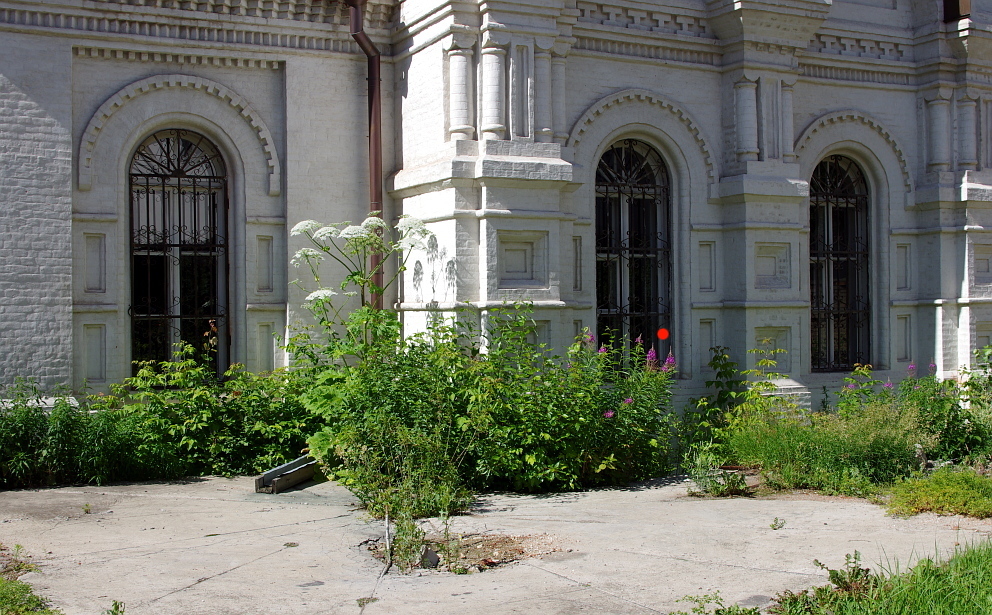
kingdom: Plantae
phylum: Tracheophyta
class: Magnoliopsida
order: Myrtales
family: Onagraceae
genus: Chamaenerion
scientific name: Chamaenerion angustifolium
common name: Fireweed
